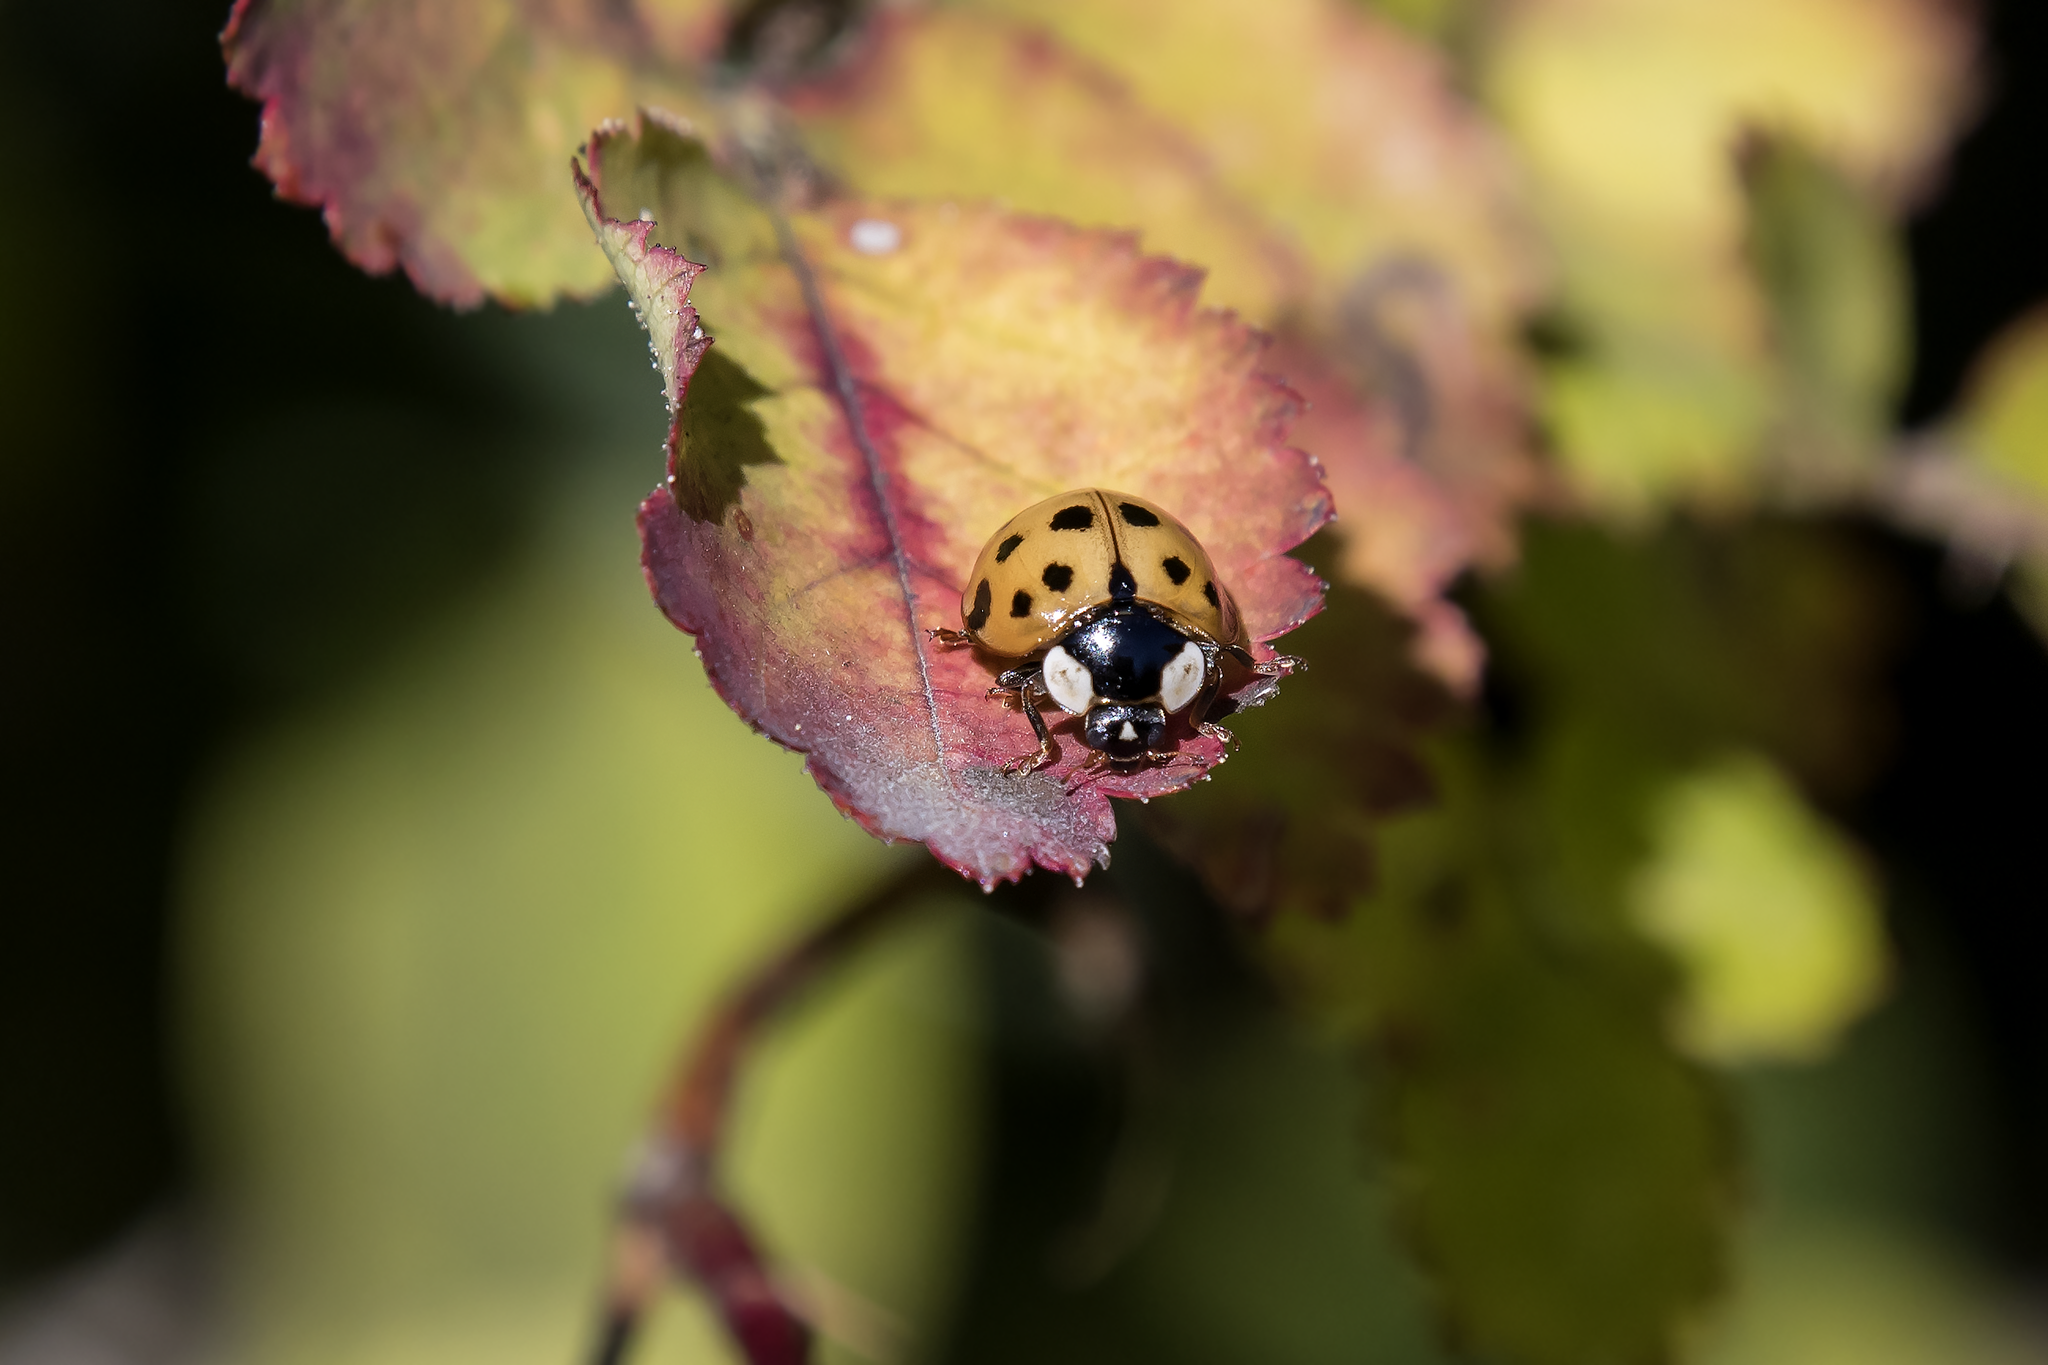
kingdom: Animalia
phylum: Arthropoda
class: Insecta
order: Coleoptera
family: Coccinellidae
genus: Harmonia
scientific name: Harmonia axyridis
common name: Harlequin ladybird
